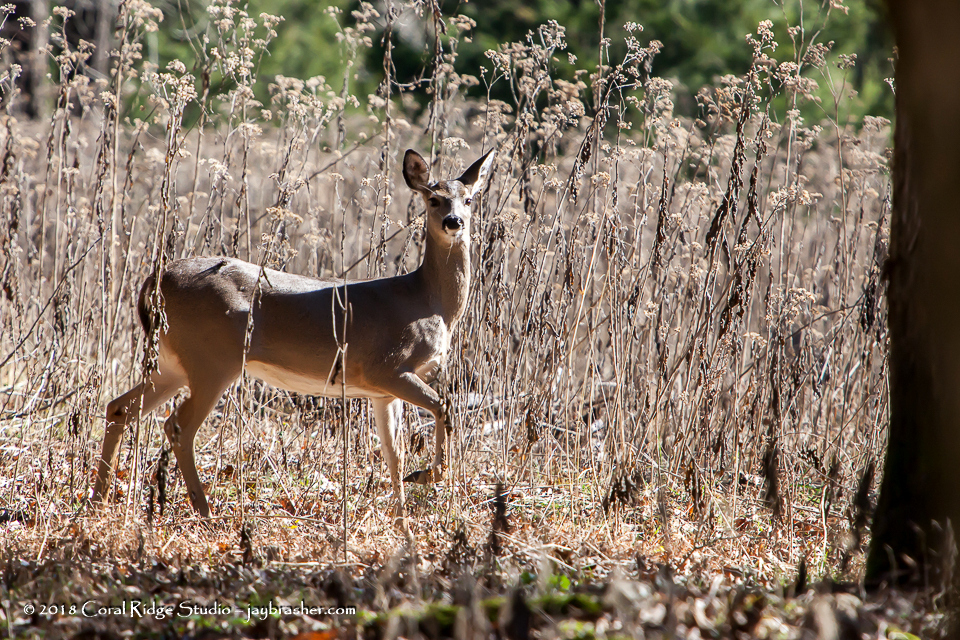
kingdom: Animalia
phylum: Chordata
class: Mammalia
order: Artiodactyla
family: Cervidae
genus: Odocoileus
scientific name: Odocoileus virginianus
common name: White-tailed deer
